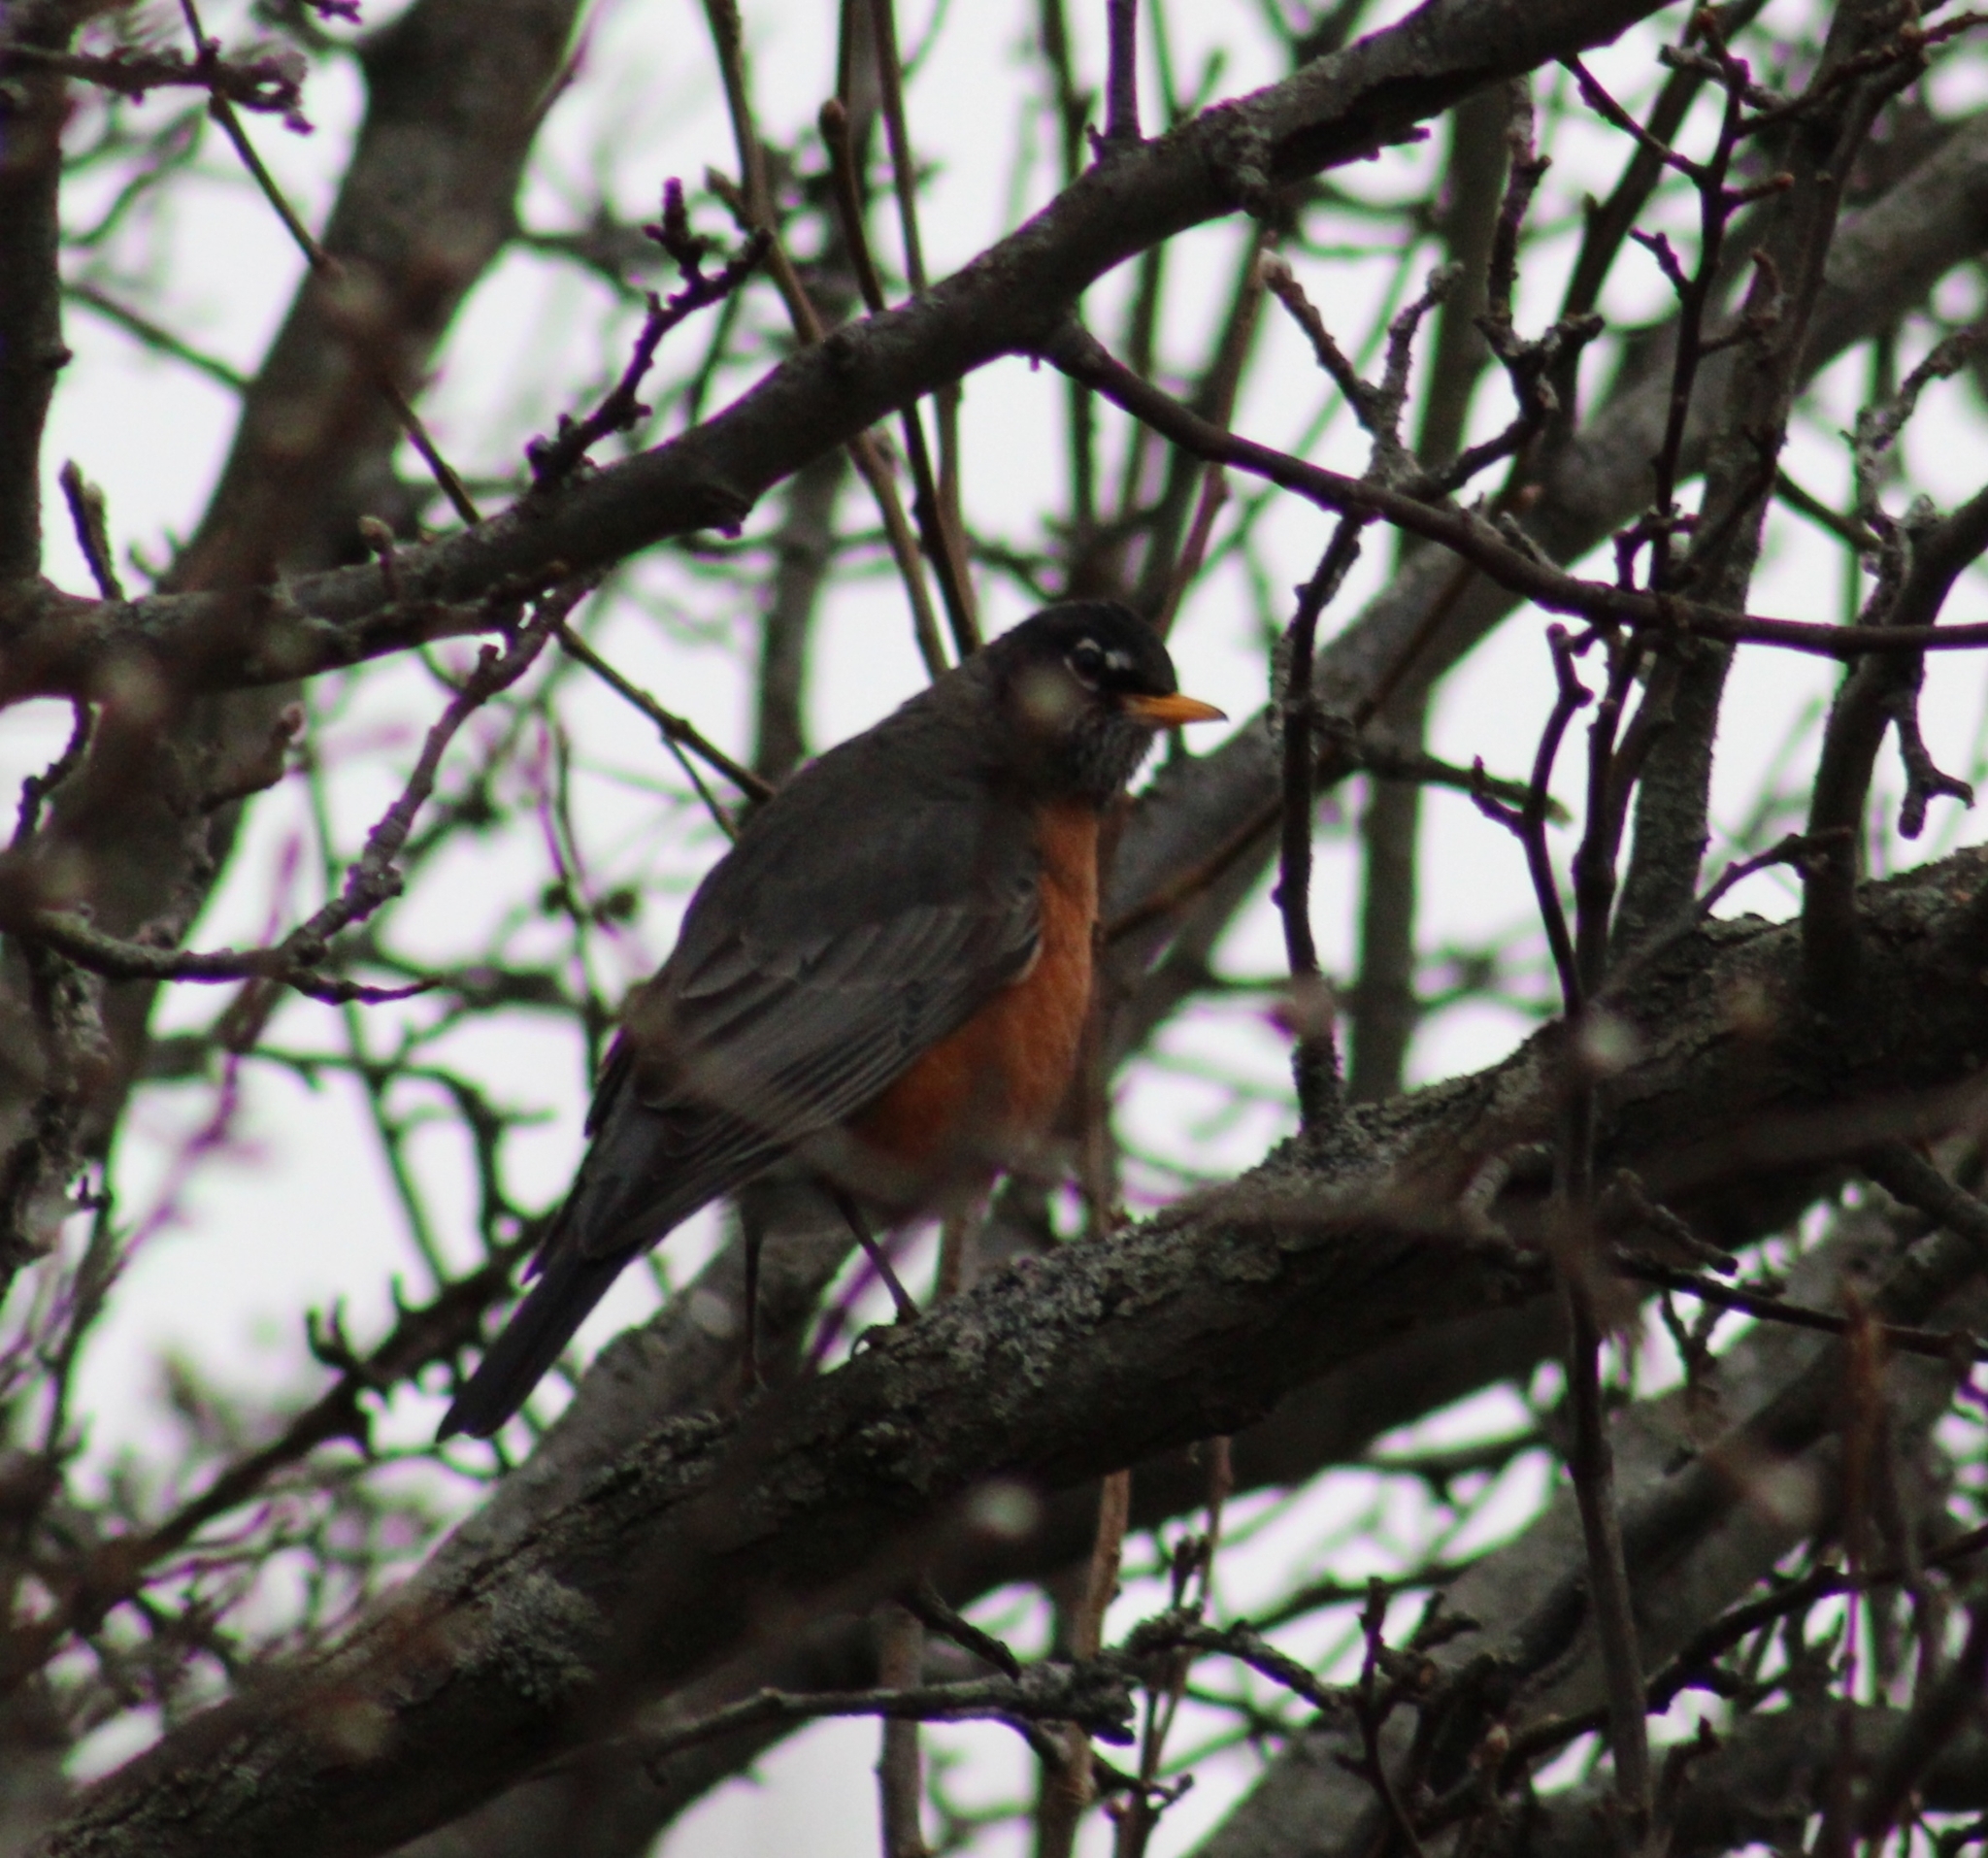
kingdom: Animalia
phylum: Chordata
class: Aves
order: Passeriformes
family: Turdidae
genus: Turdus
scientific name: Turdus migratorius
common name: American robin
